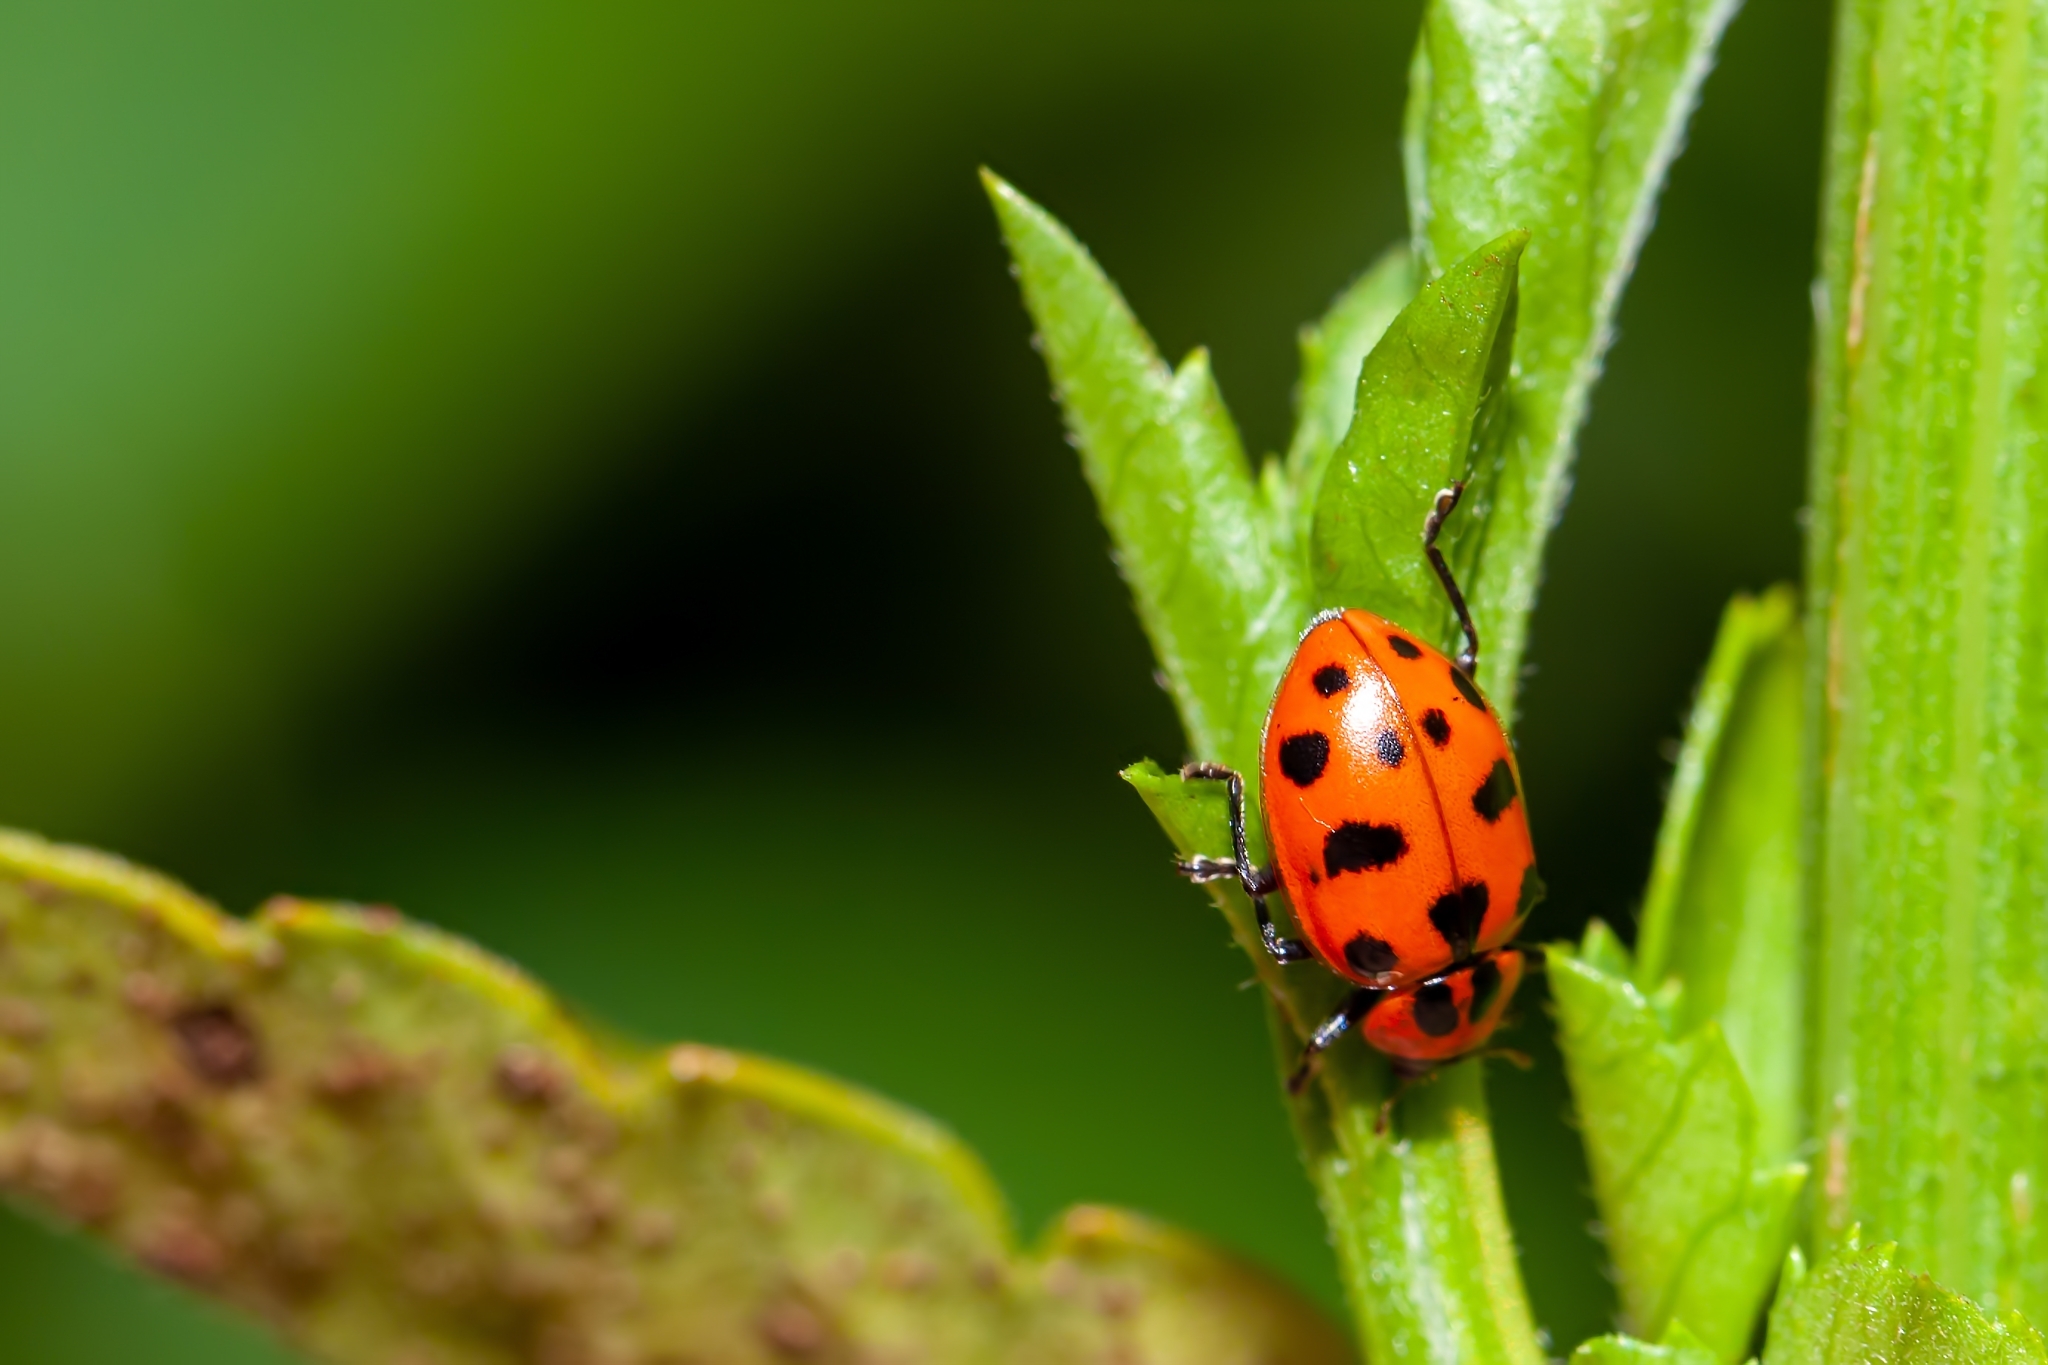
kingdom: Animalia
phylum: Arthropoda
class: Insecta
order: Coleoptera
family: Coccinellidae
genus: Coleomegilla
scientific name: Coleomegilla maculata
